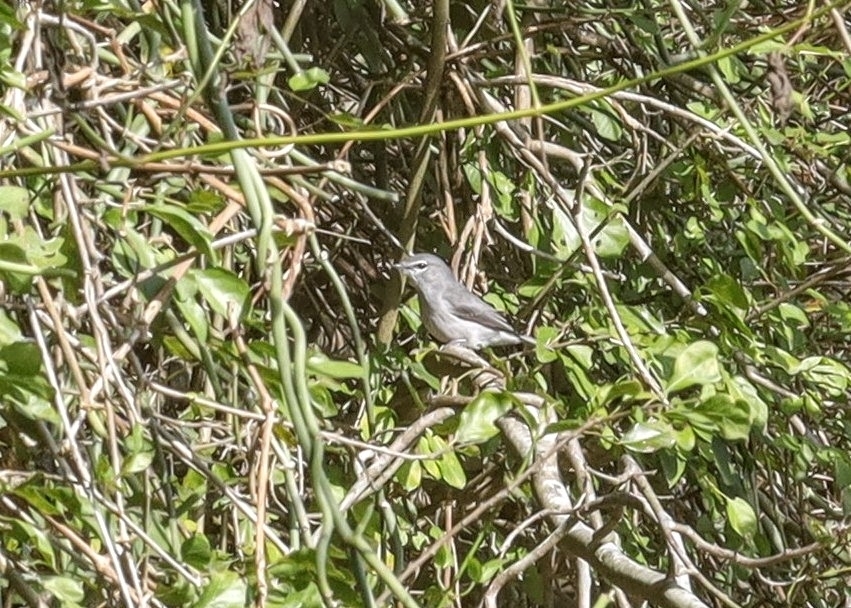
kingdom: Animalia
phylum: Chordata
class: Aves
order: Passeriformes
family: Muscicapidae
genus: Muscicapa
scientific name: Muscicapa caerulescens
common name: Ashy flycatcher
